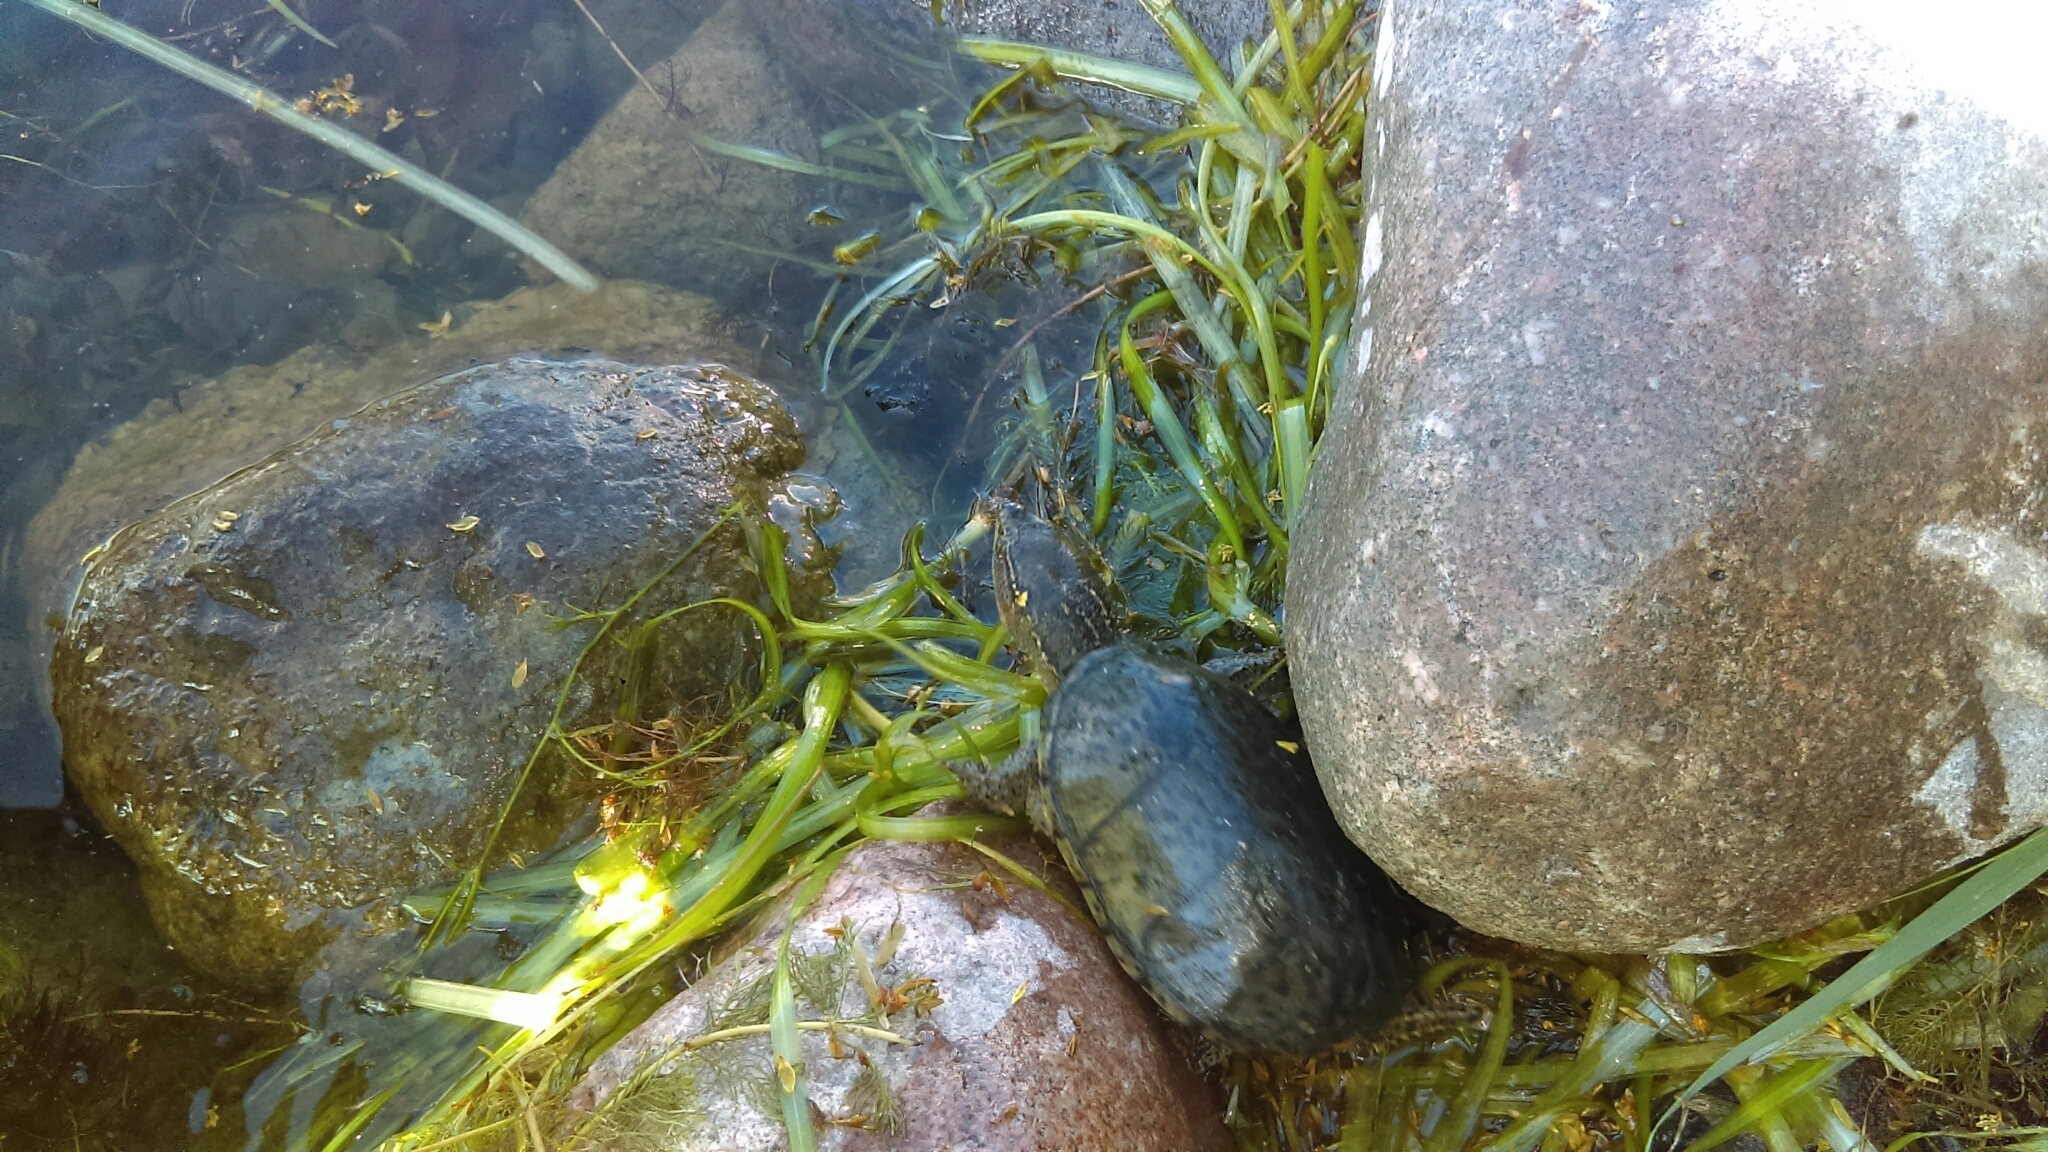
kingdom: Animalia
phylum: Chordata
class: Testudines
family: Kinosternidae
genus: Sternotherus
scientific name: Sternotherus odoratus
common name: Common musk turtle
